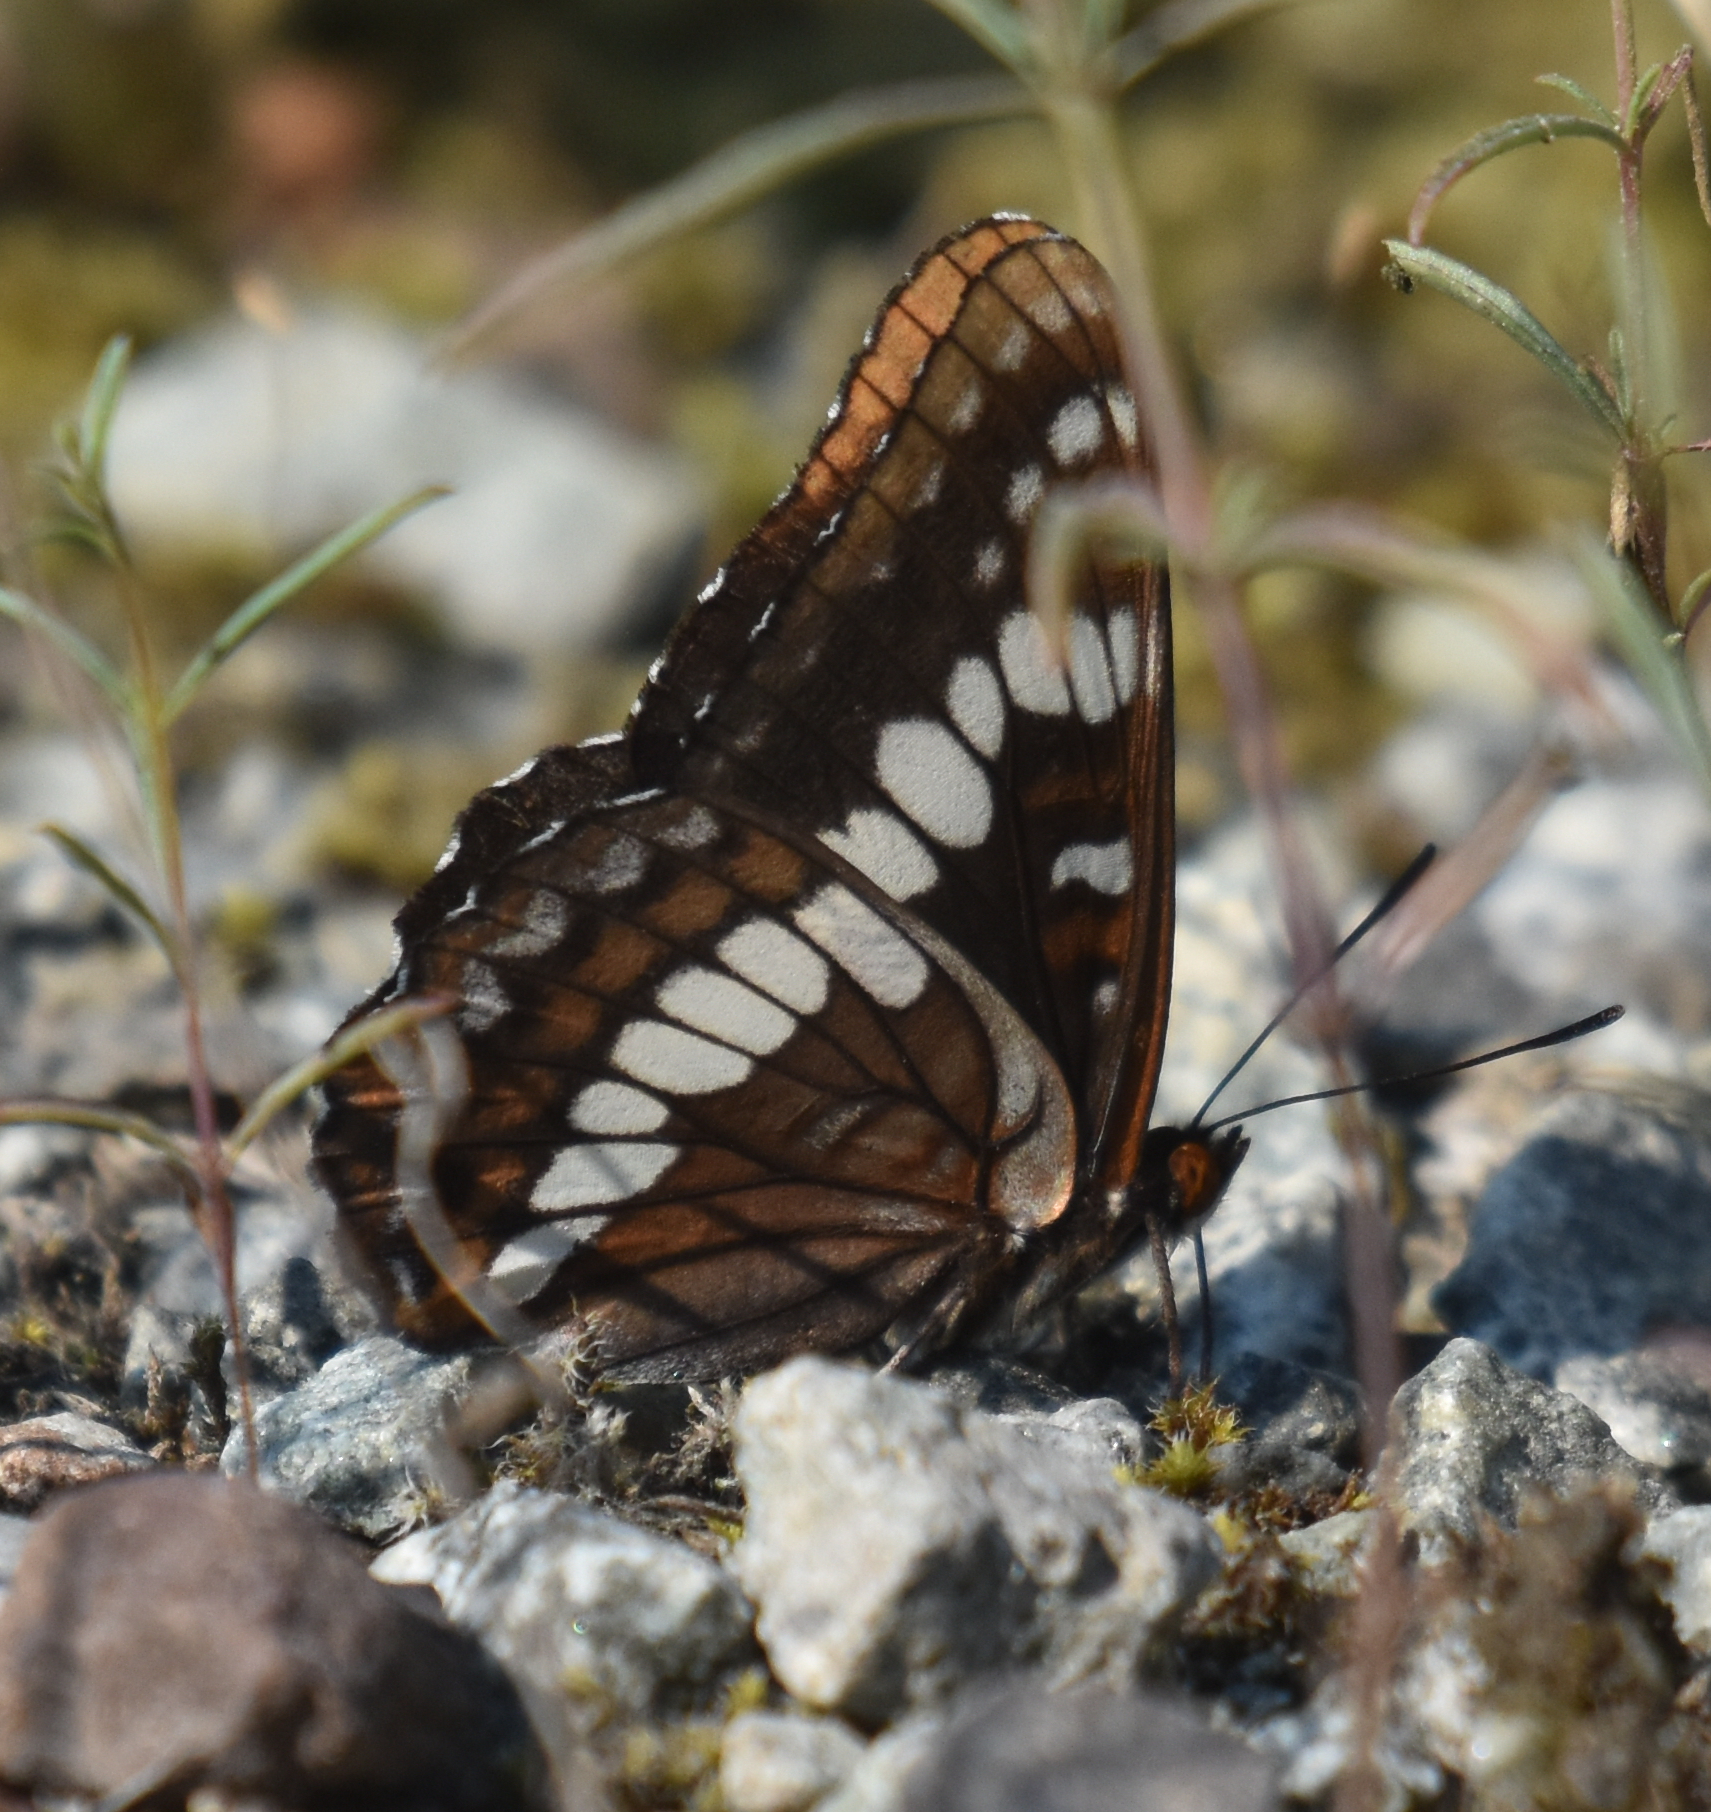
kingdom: Animalia
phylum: Arthropoda
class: Insecta
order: Lepidoptera
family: Nymphalidae
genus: Limenitis
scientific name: Limenitis lorquini
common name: Lorquin's admiral
